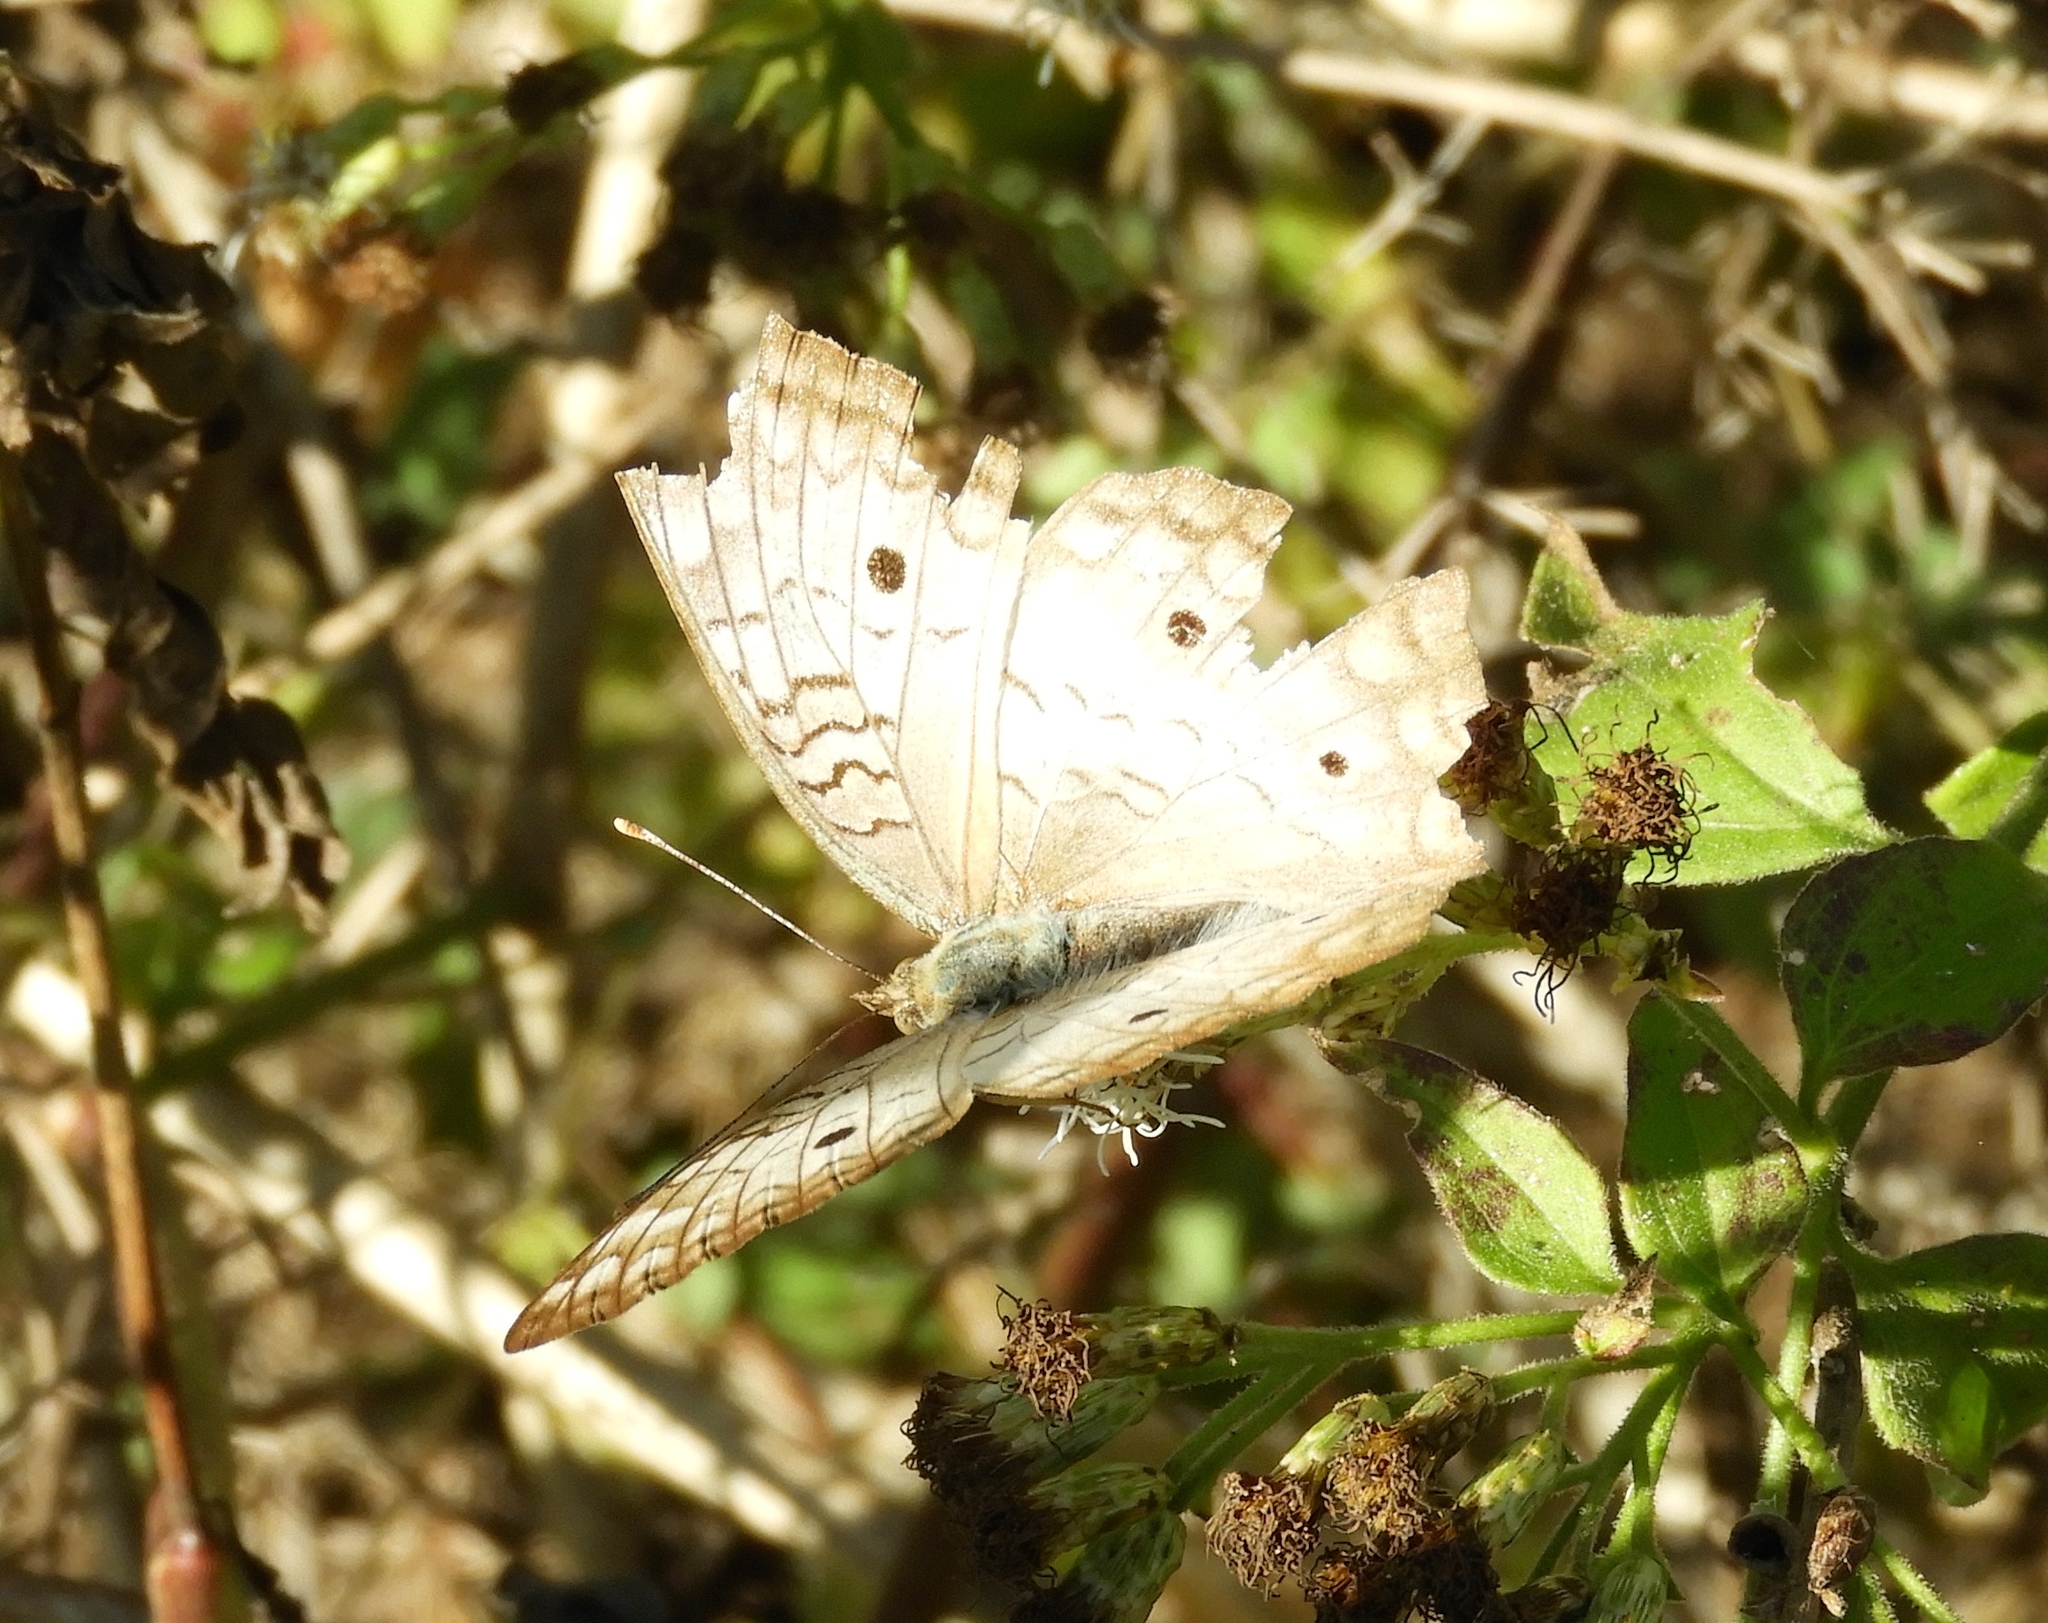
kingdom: Animalia
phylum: Arthropoda
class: Insecta
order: Lepidoptera
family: Nymphalidae
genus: Anartia
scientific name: Anartia jatrophae
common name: White peacock
